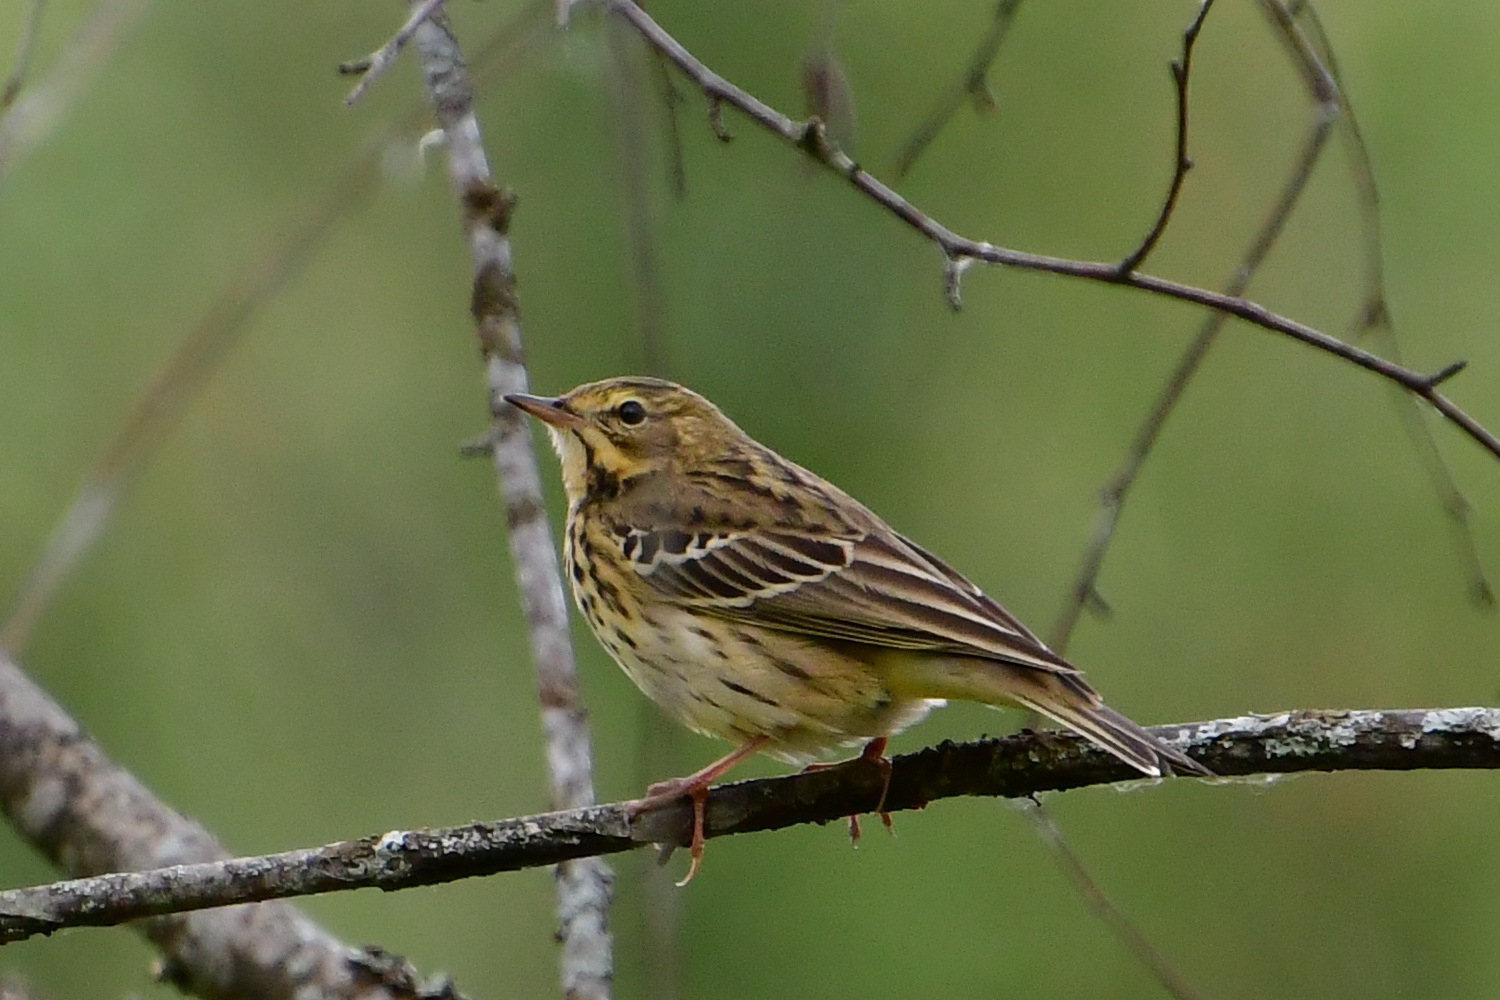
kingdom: Animalia
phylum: Chordata
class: Aves
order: Passeriformes
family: Motacillidae
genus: Anthus
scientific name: Anthus trivialis
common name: Tree pipit
